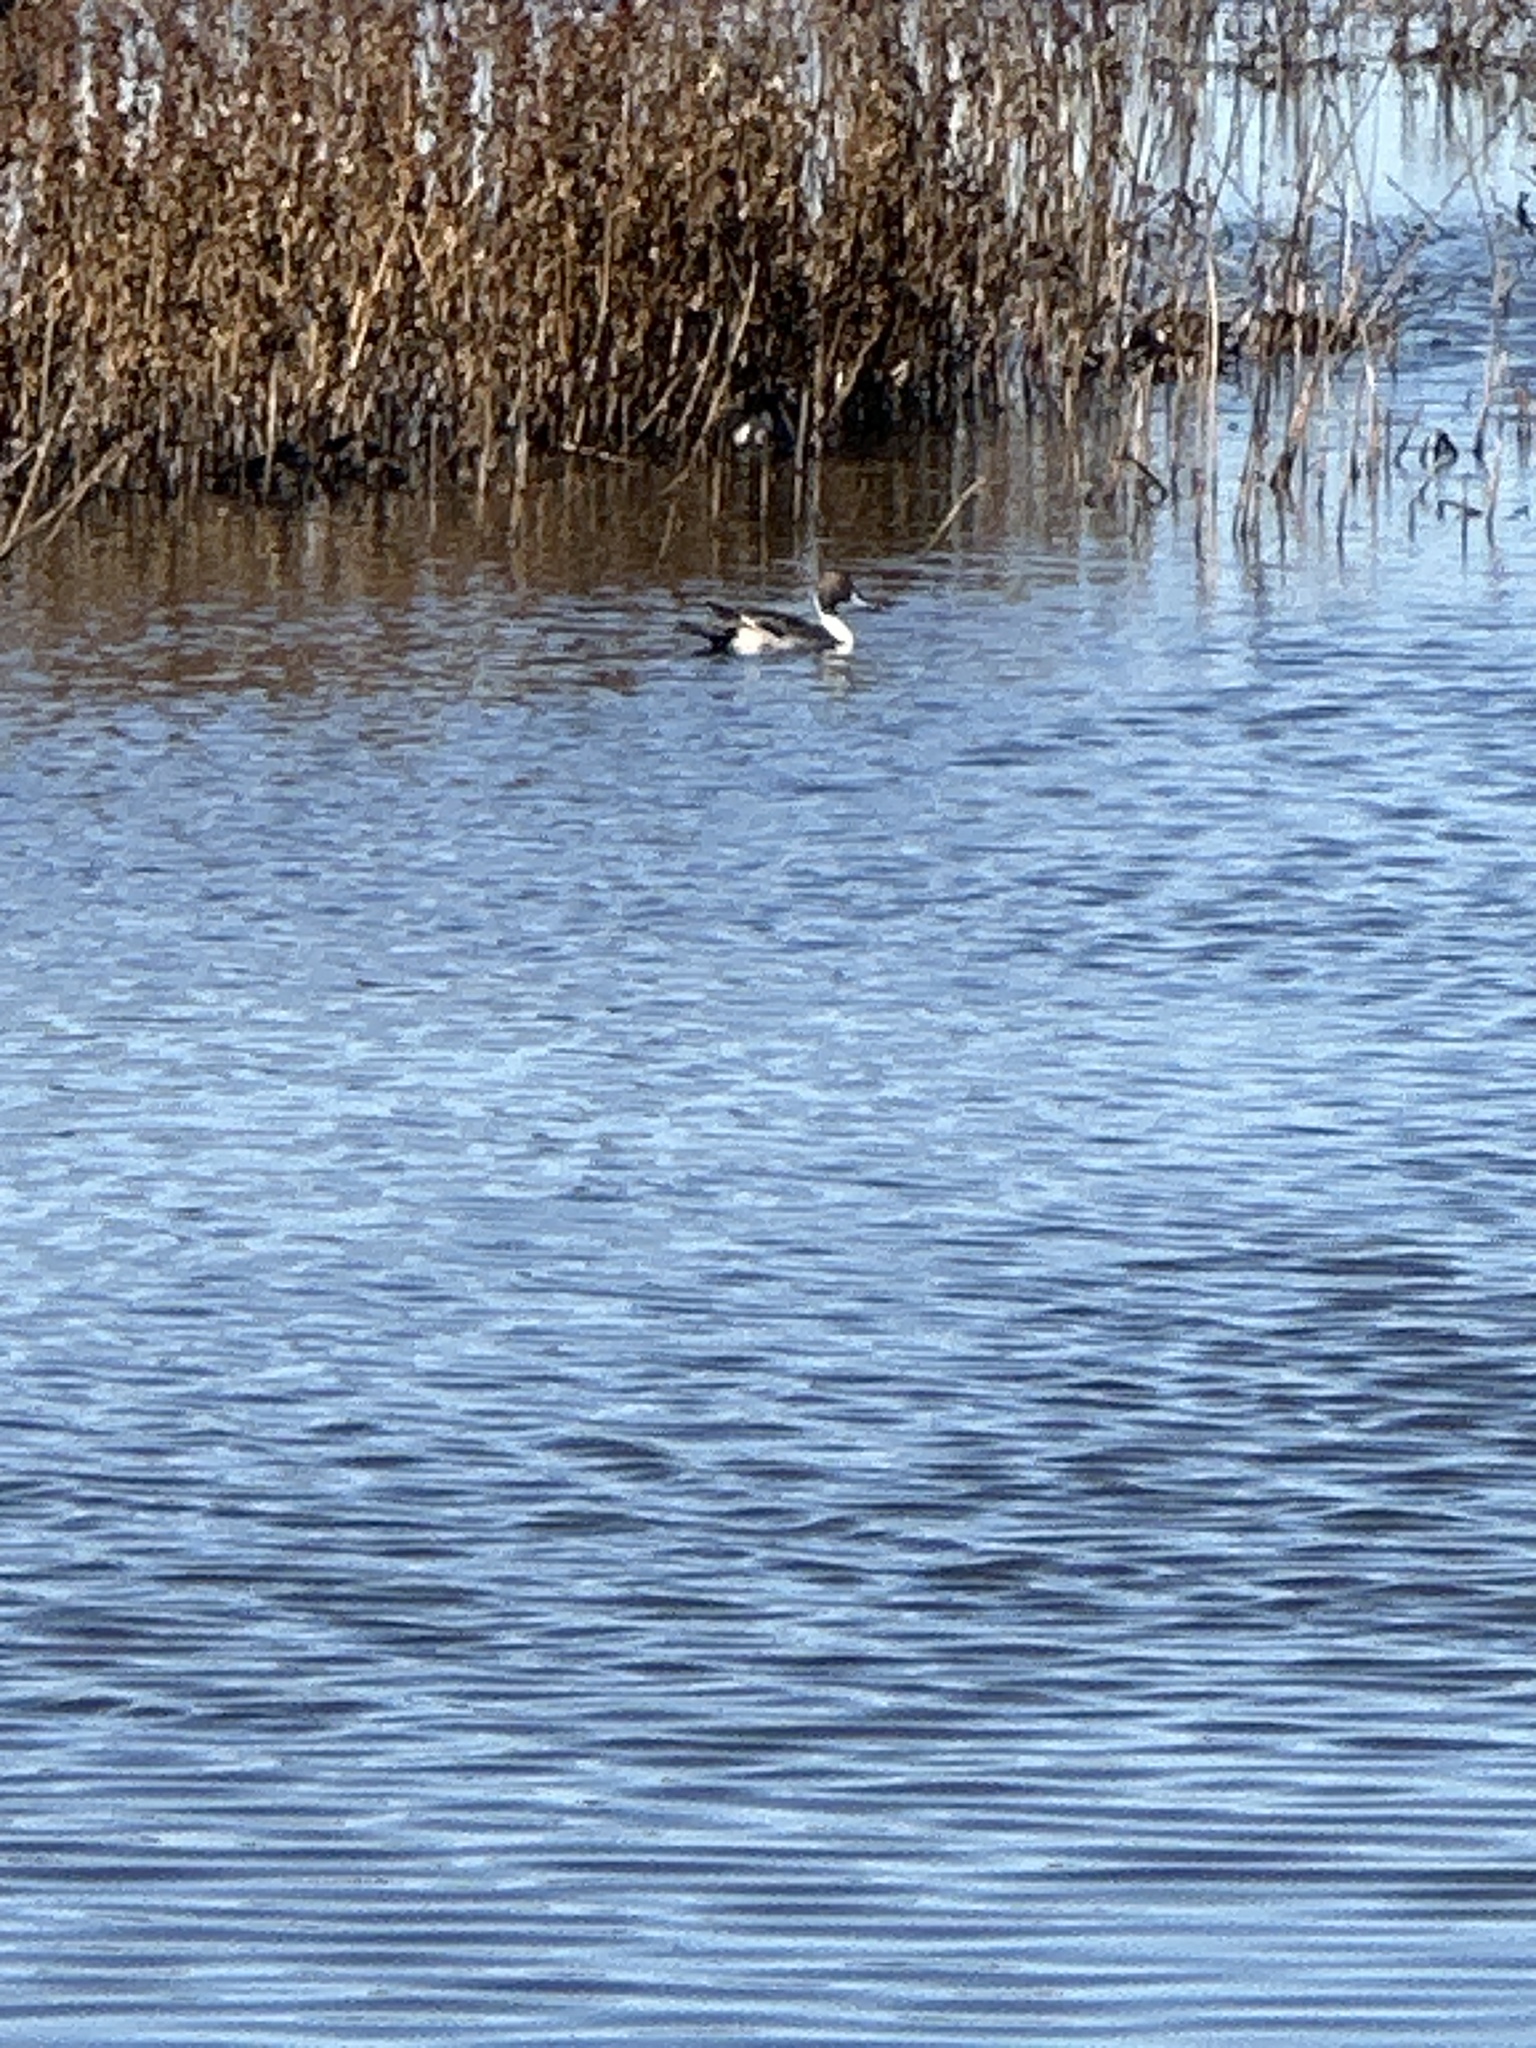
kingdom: Animalia
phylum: Chordata
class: Aves
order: Anseriformes
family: Anatidae
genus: Anas
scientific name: Anas acuta
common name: Northern pintail
